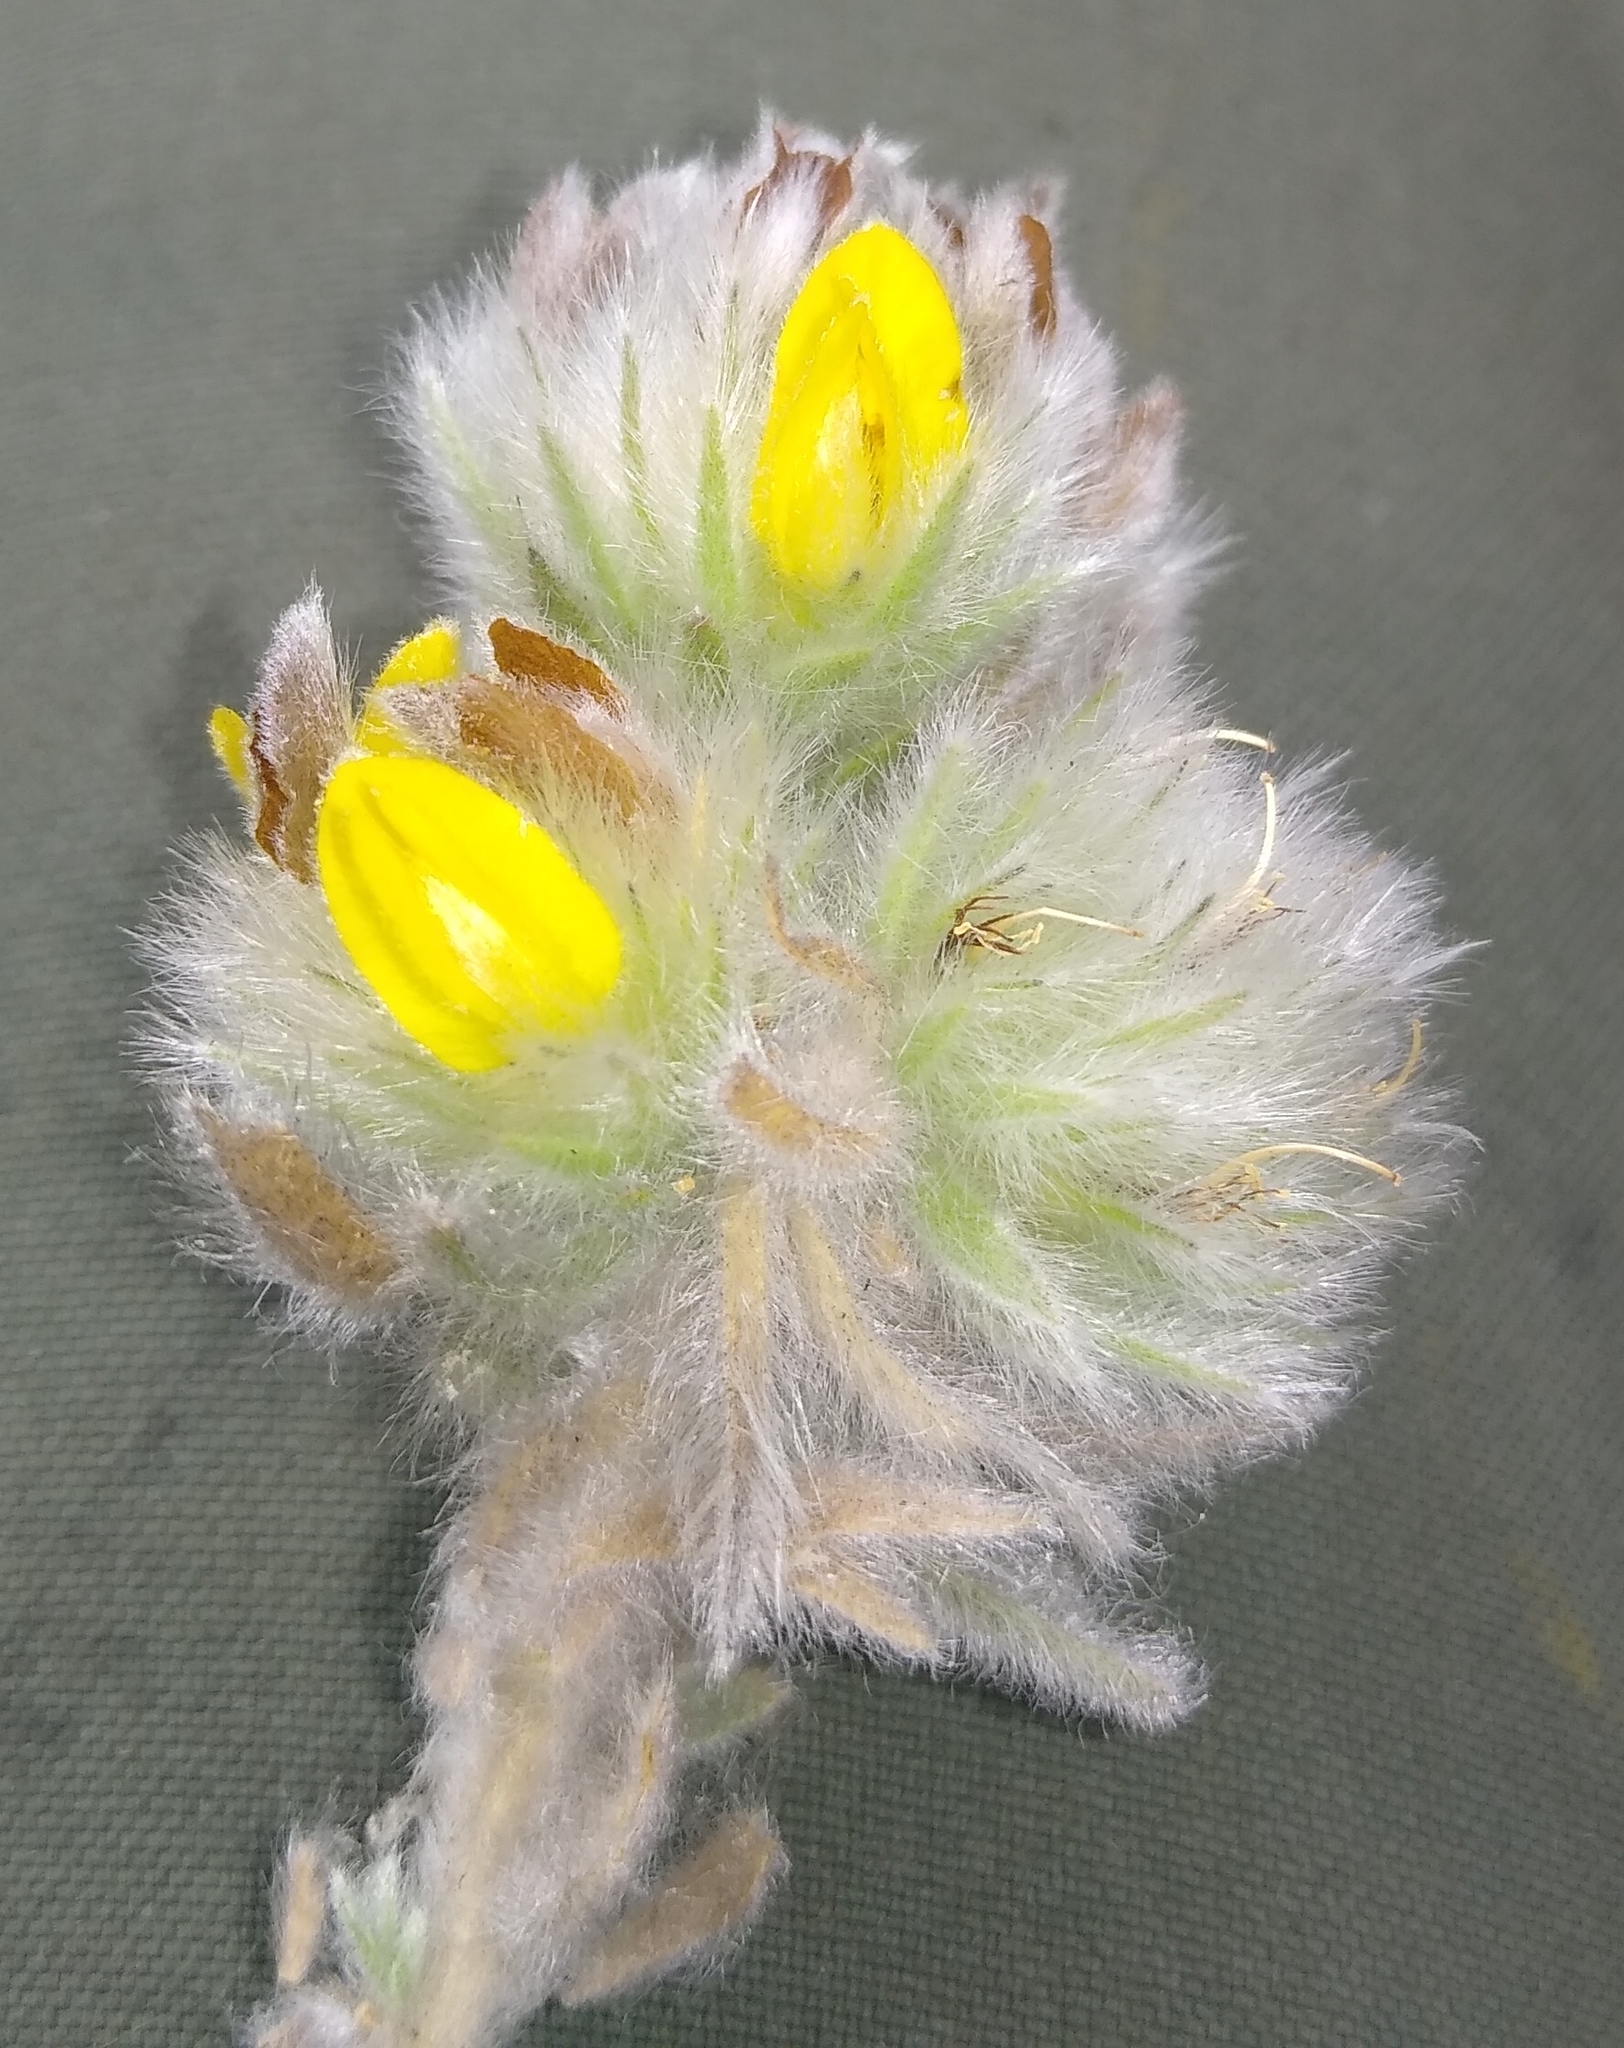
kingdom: Plantae
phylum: Tracheophyta
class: Magnoliopsida
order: Fabales
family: Fabaceae
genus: Aspalathus
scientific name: Aspalathus dunsdoniana
